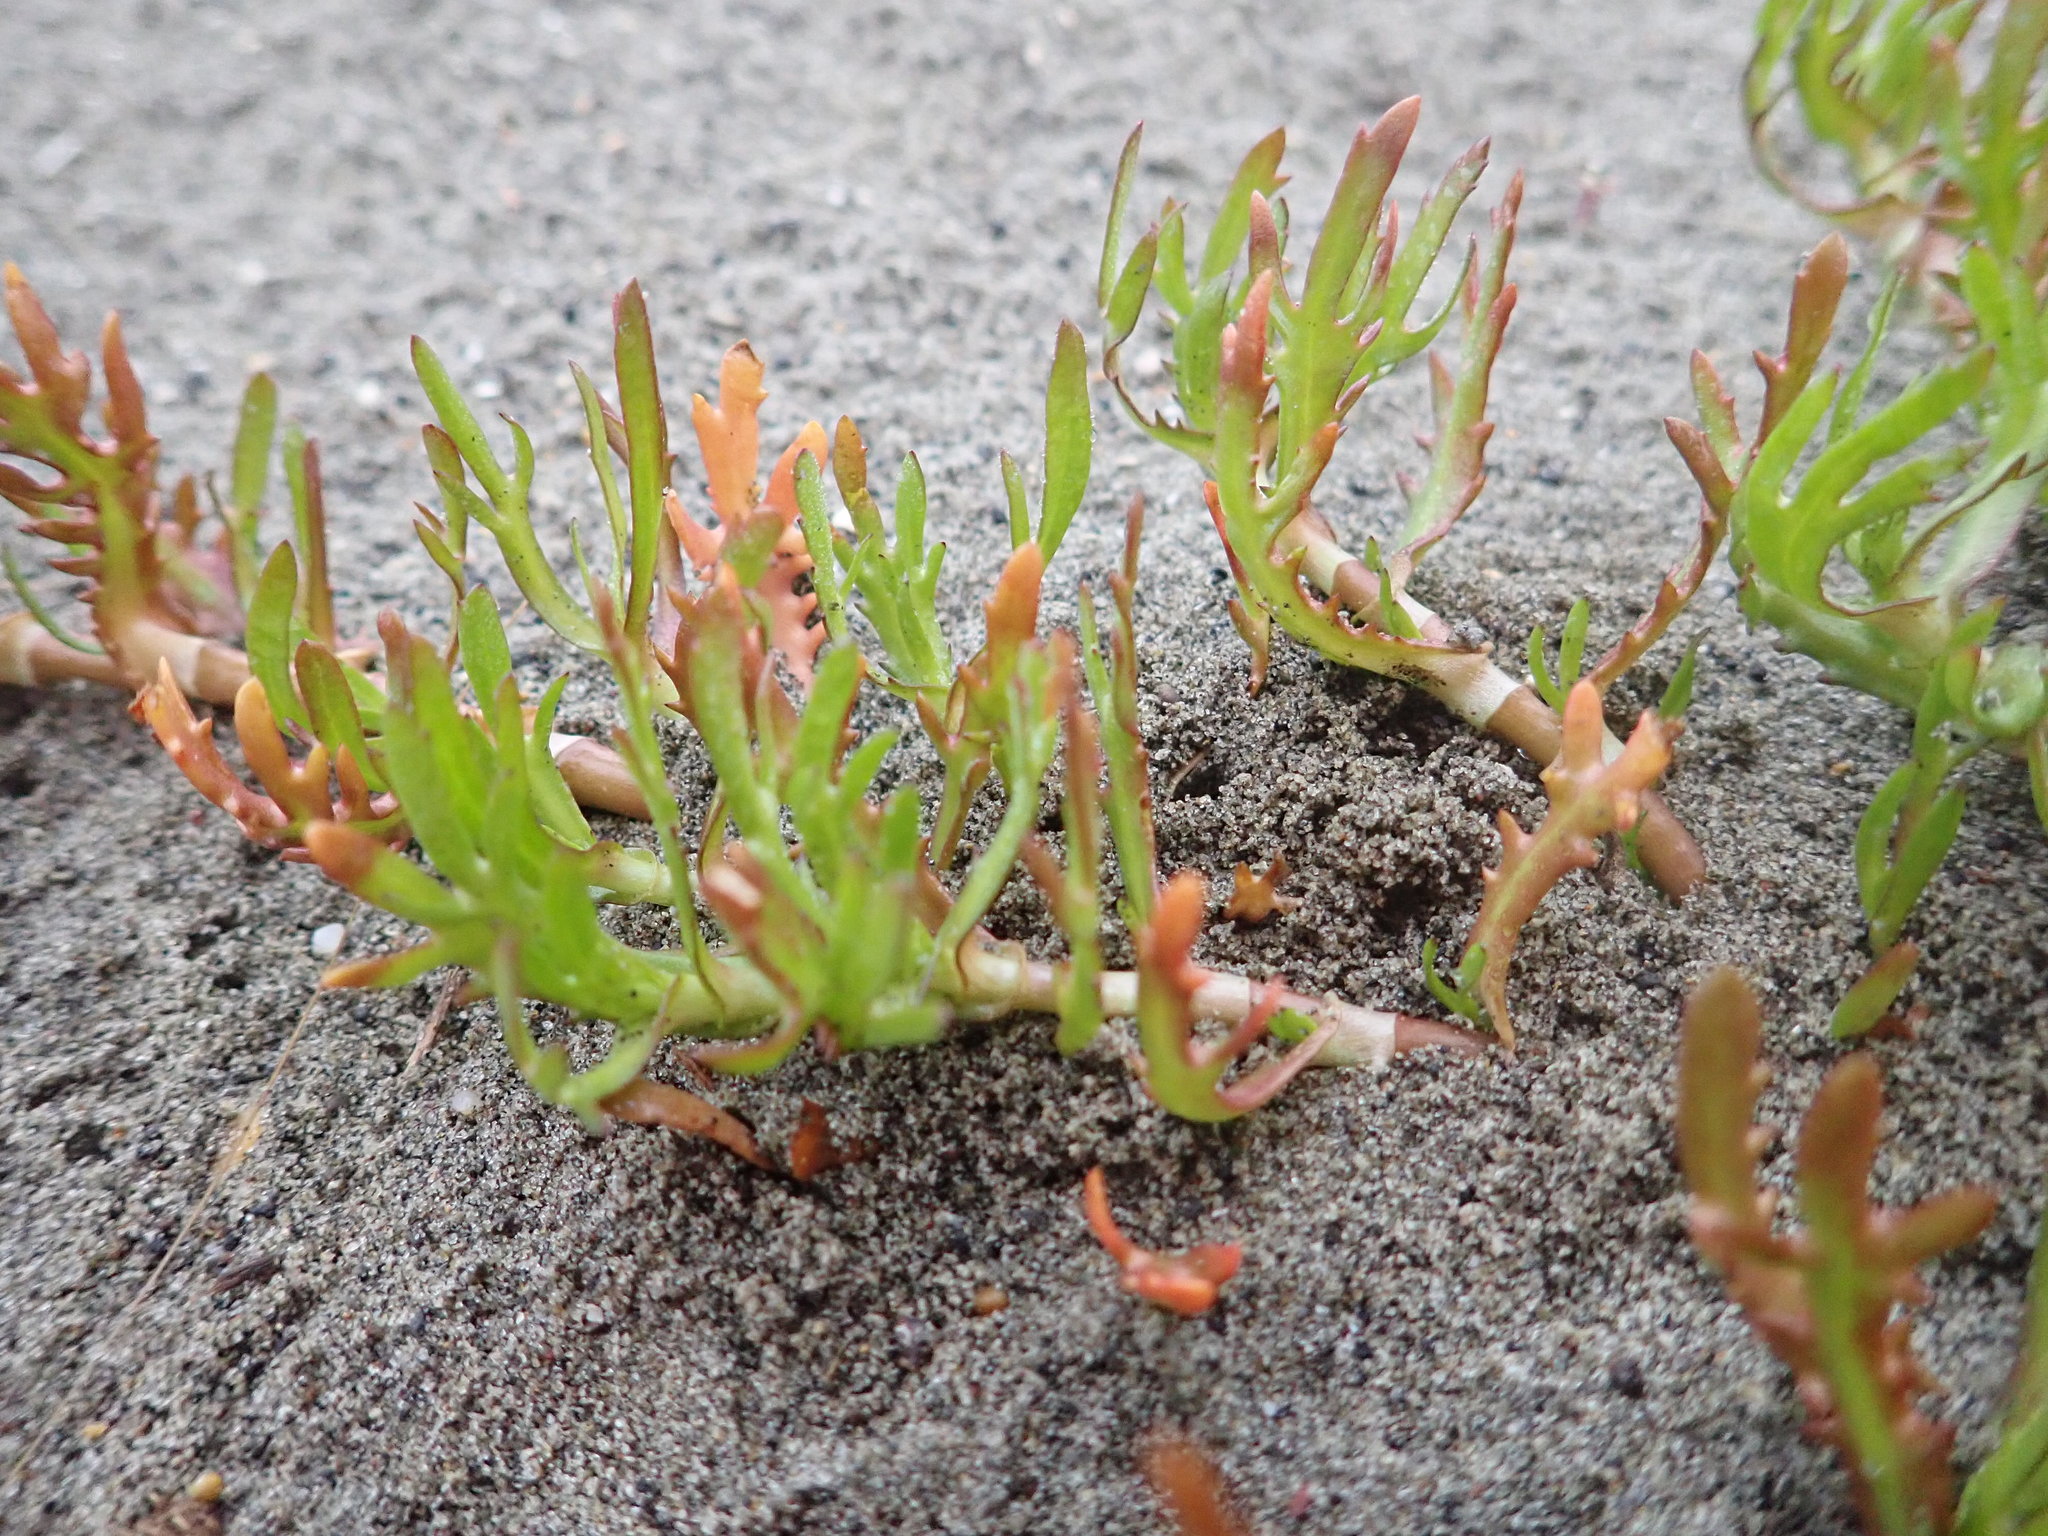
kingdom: Plantae
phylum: Tracheophyta
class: Magnoliopsida
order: Asterales
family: Asteraceae
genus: Cotula
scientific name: Cotula coronopifolia
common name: Buttonweed
